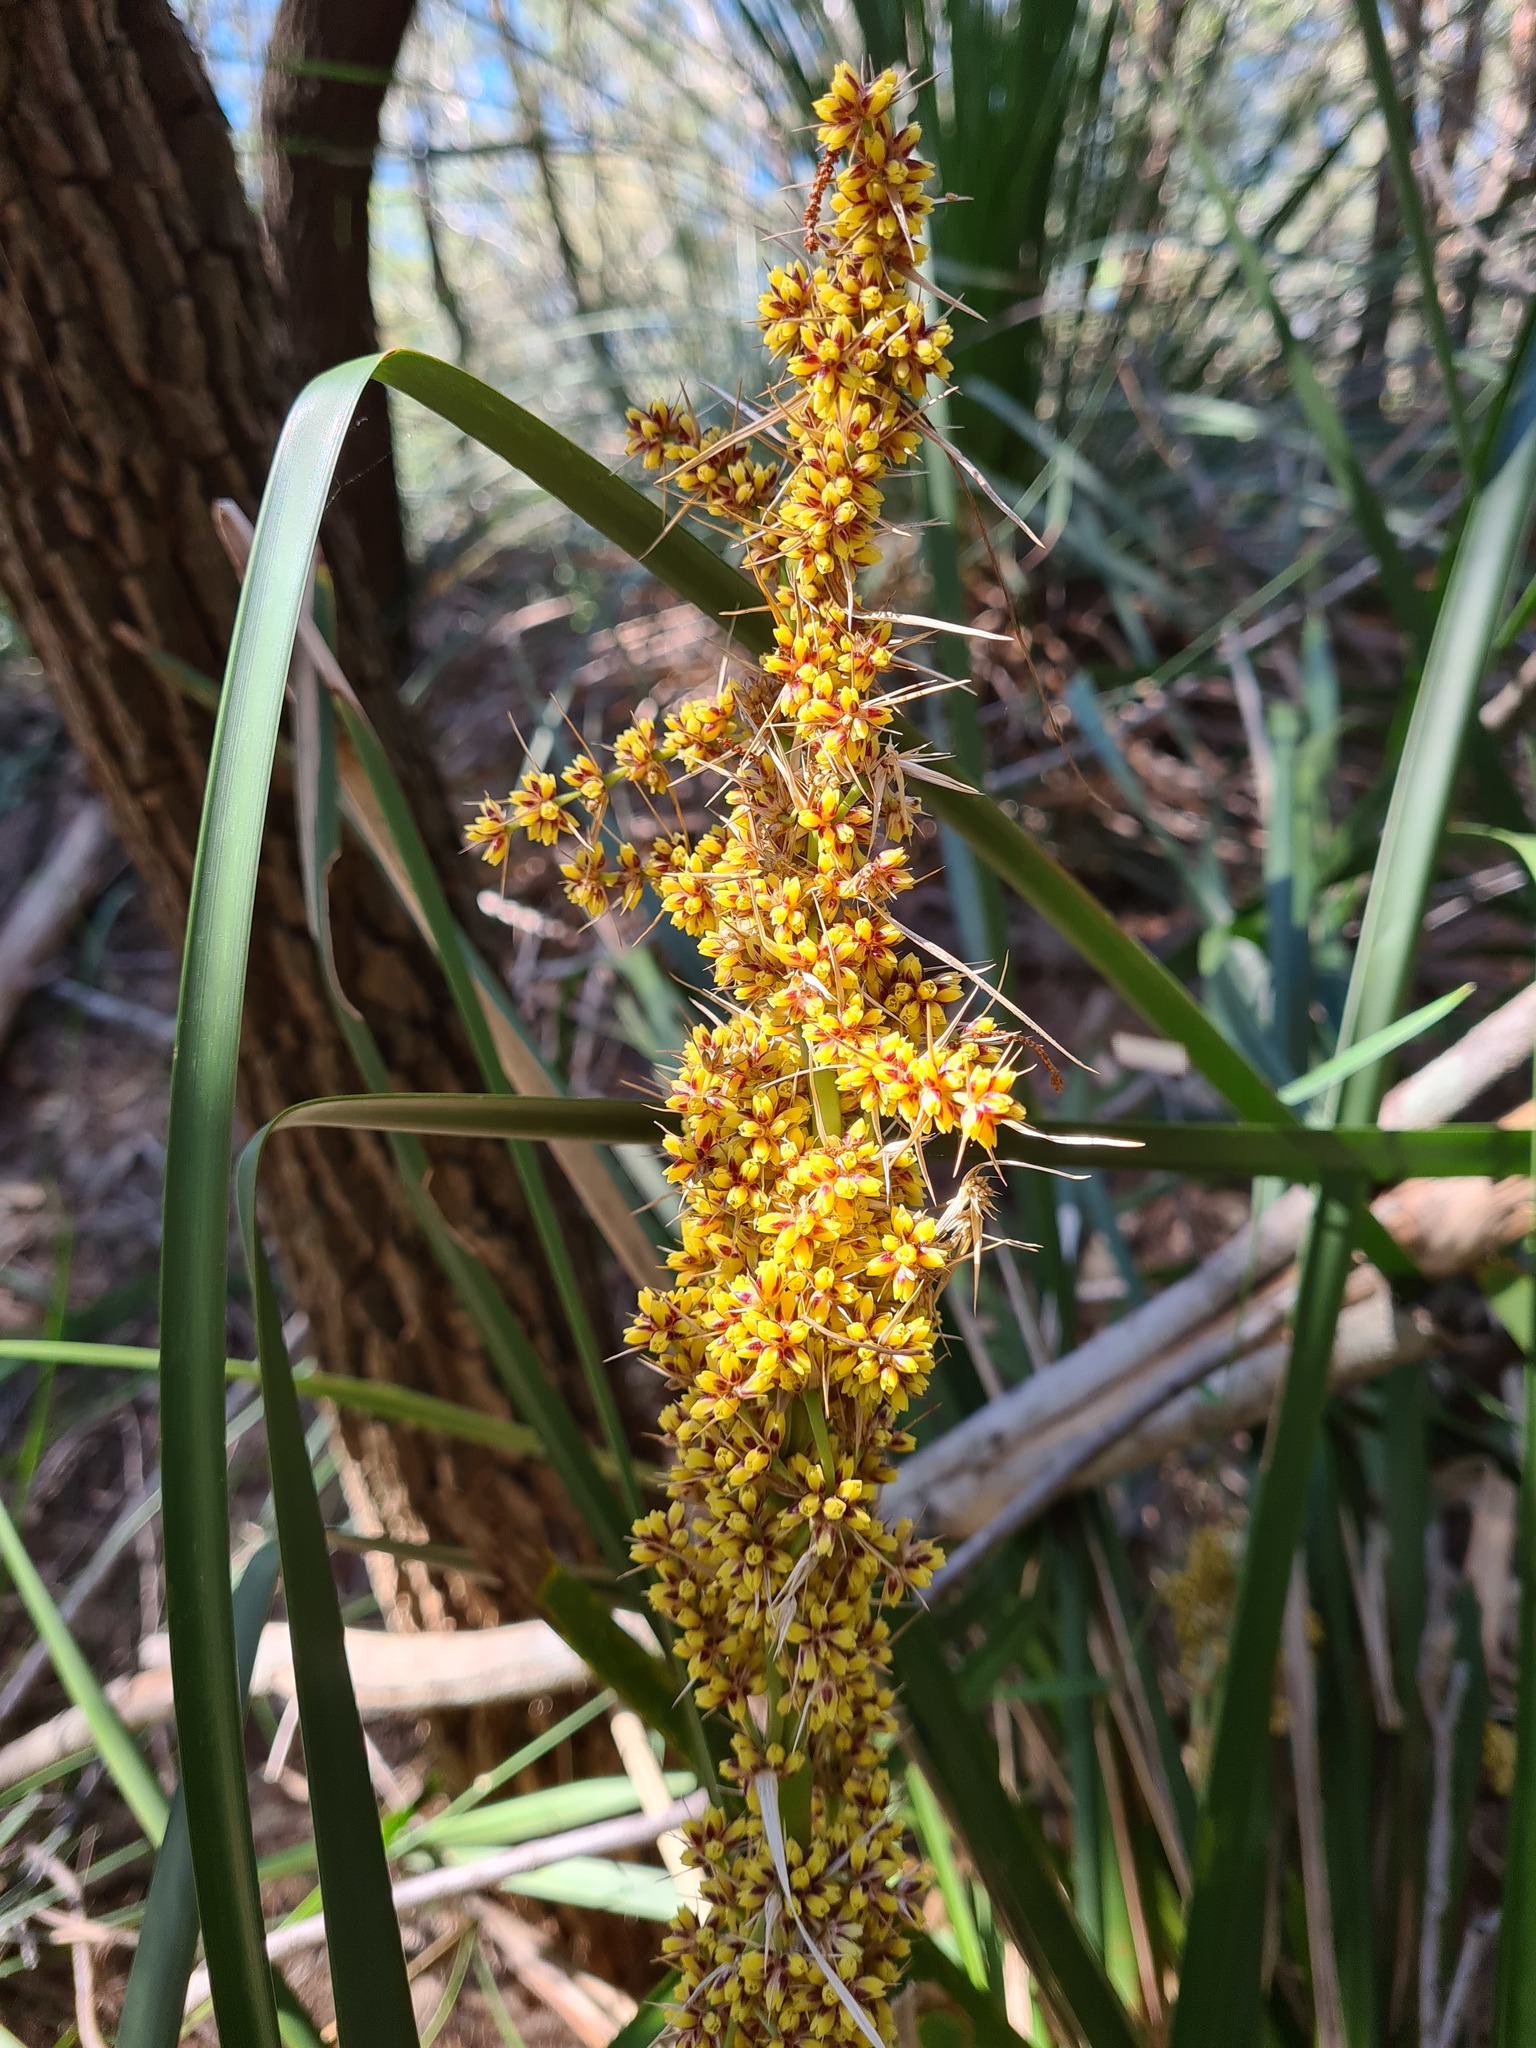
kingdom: Plantae
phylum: Tracheophyta
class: Liliopsida
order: Asparagales
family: Asparagaceae
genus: Lomandra
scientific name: Lomandra longifolia
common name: Longleaf mat-rush
